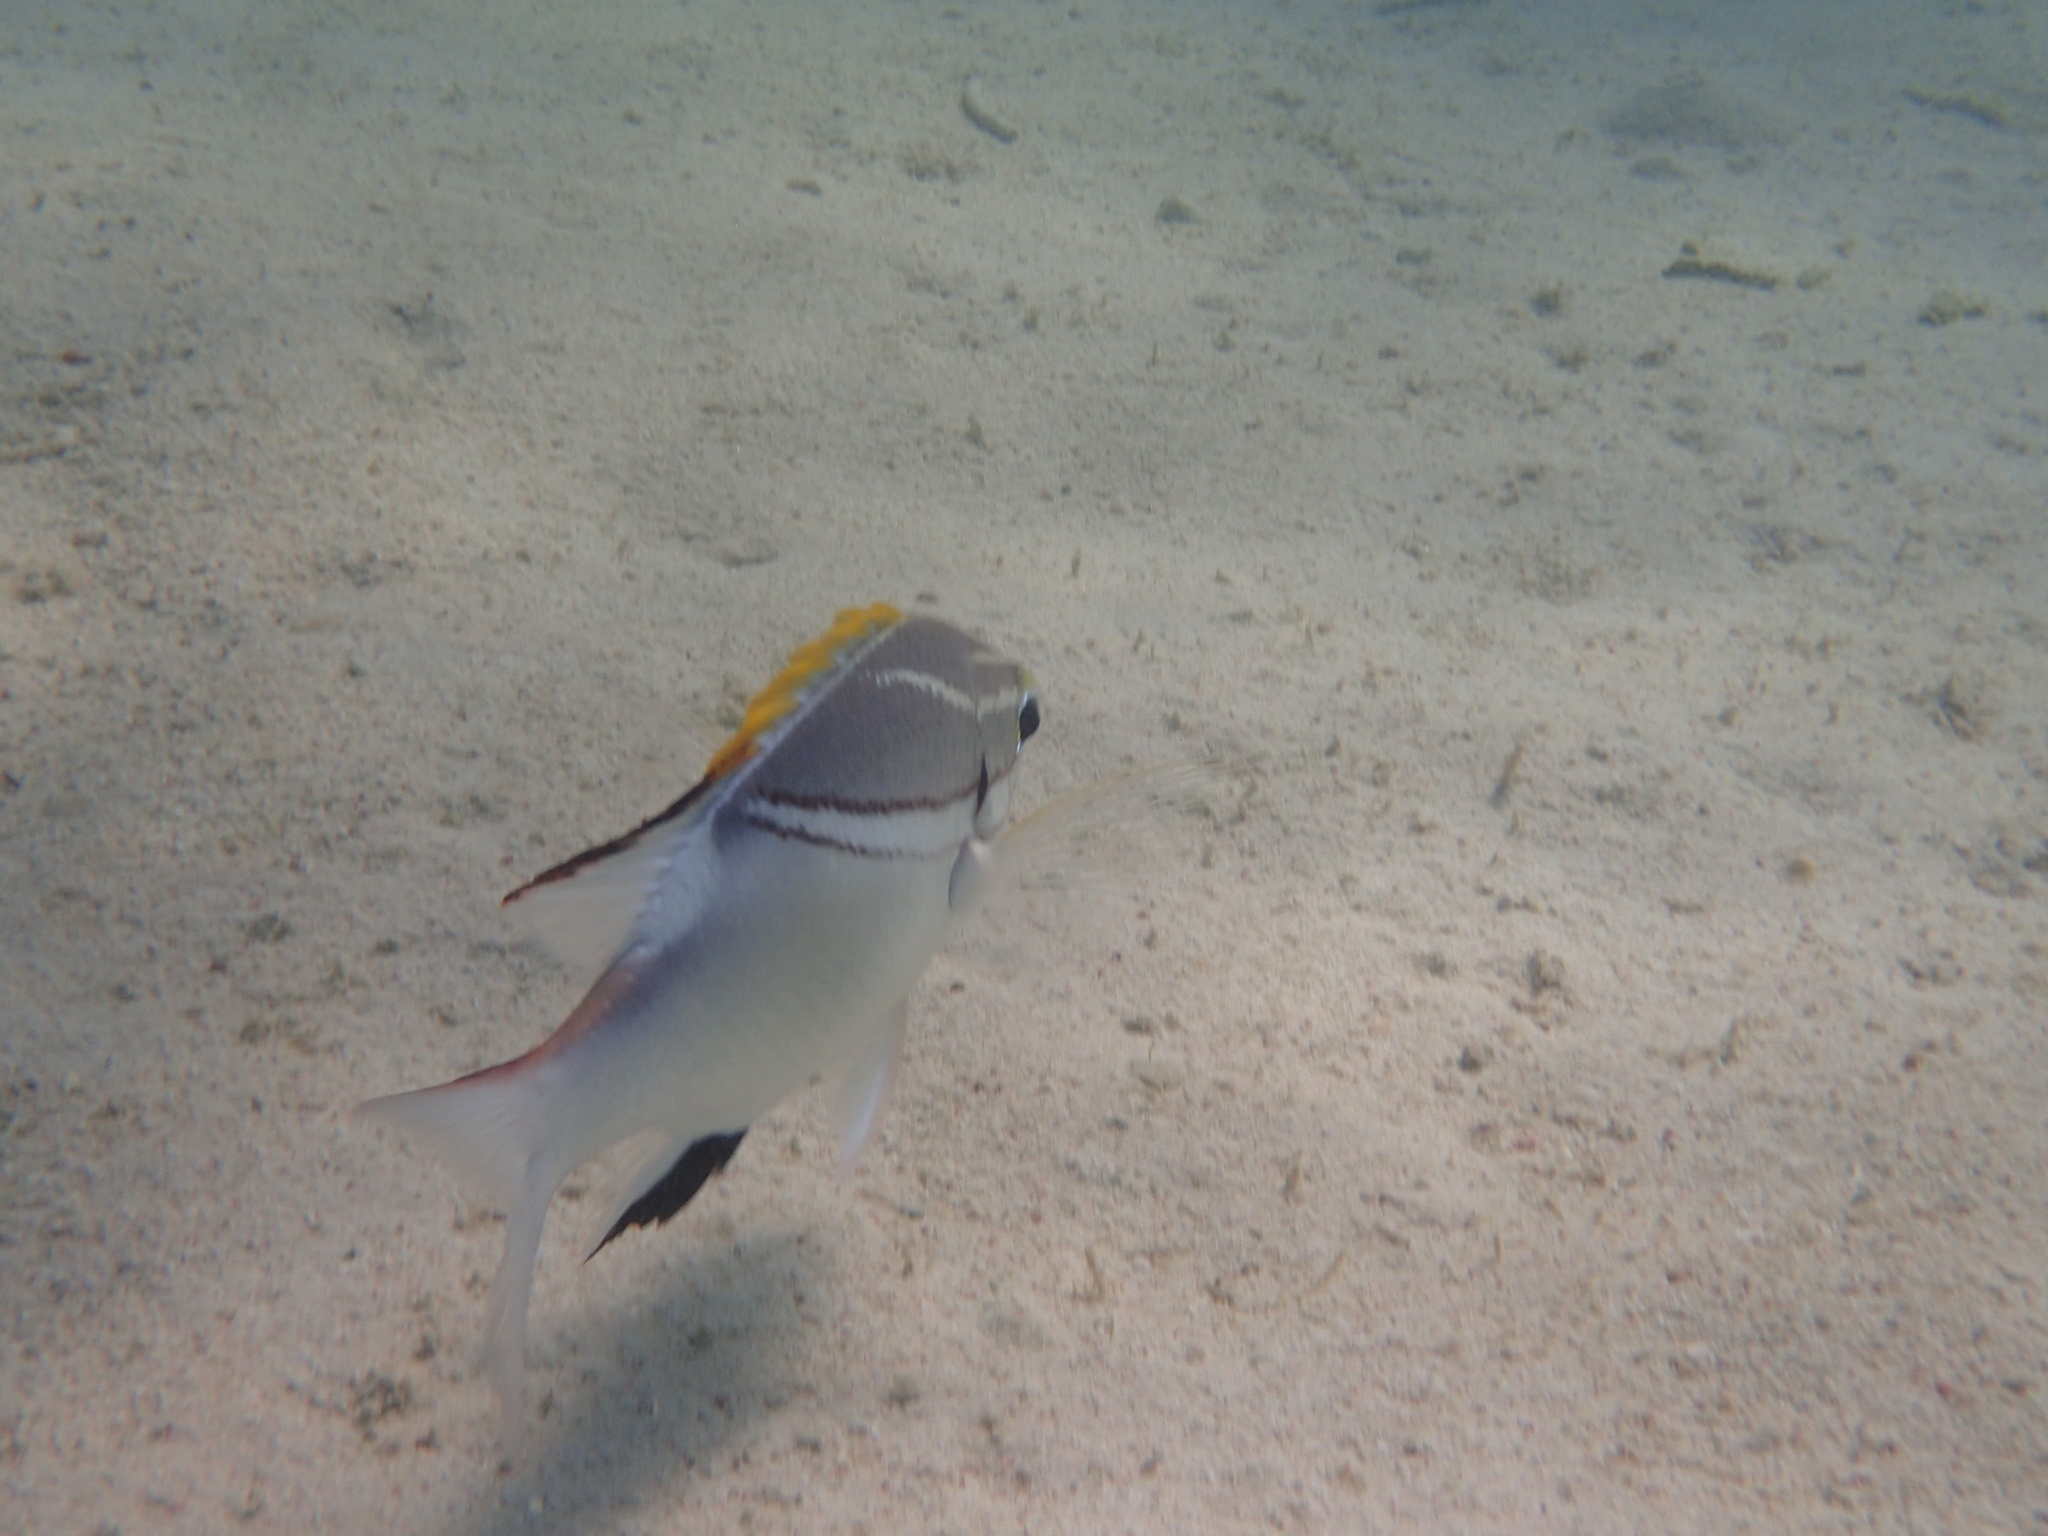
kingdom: Animalia
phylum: Chordata
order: Perciformes
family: Nemipteridae
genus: Scolopsis
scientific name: Scolopsis bilineata
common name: Two-lined monocle bream
